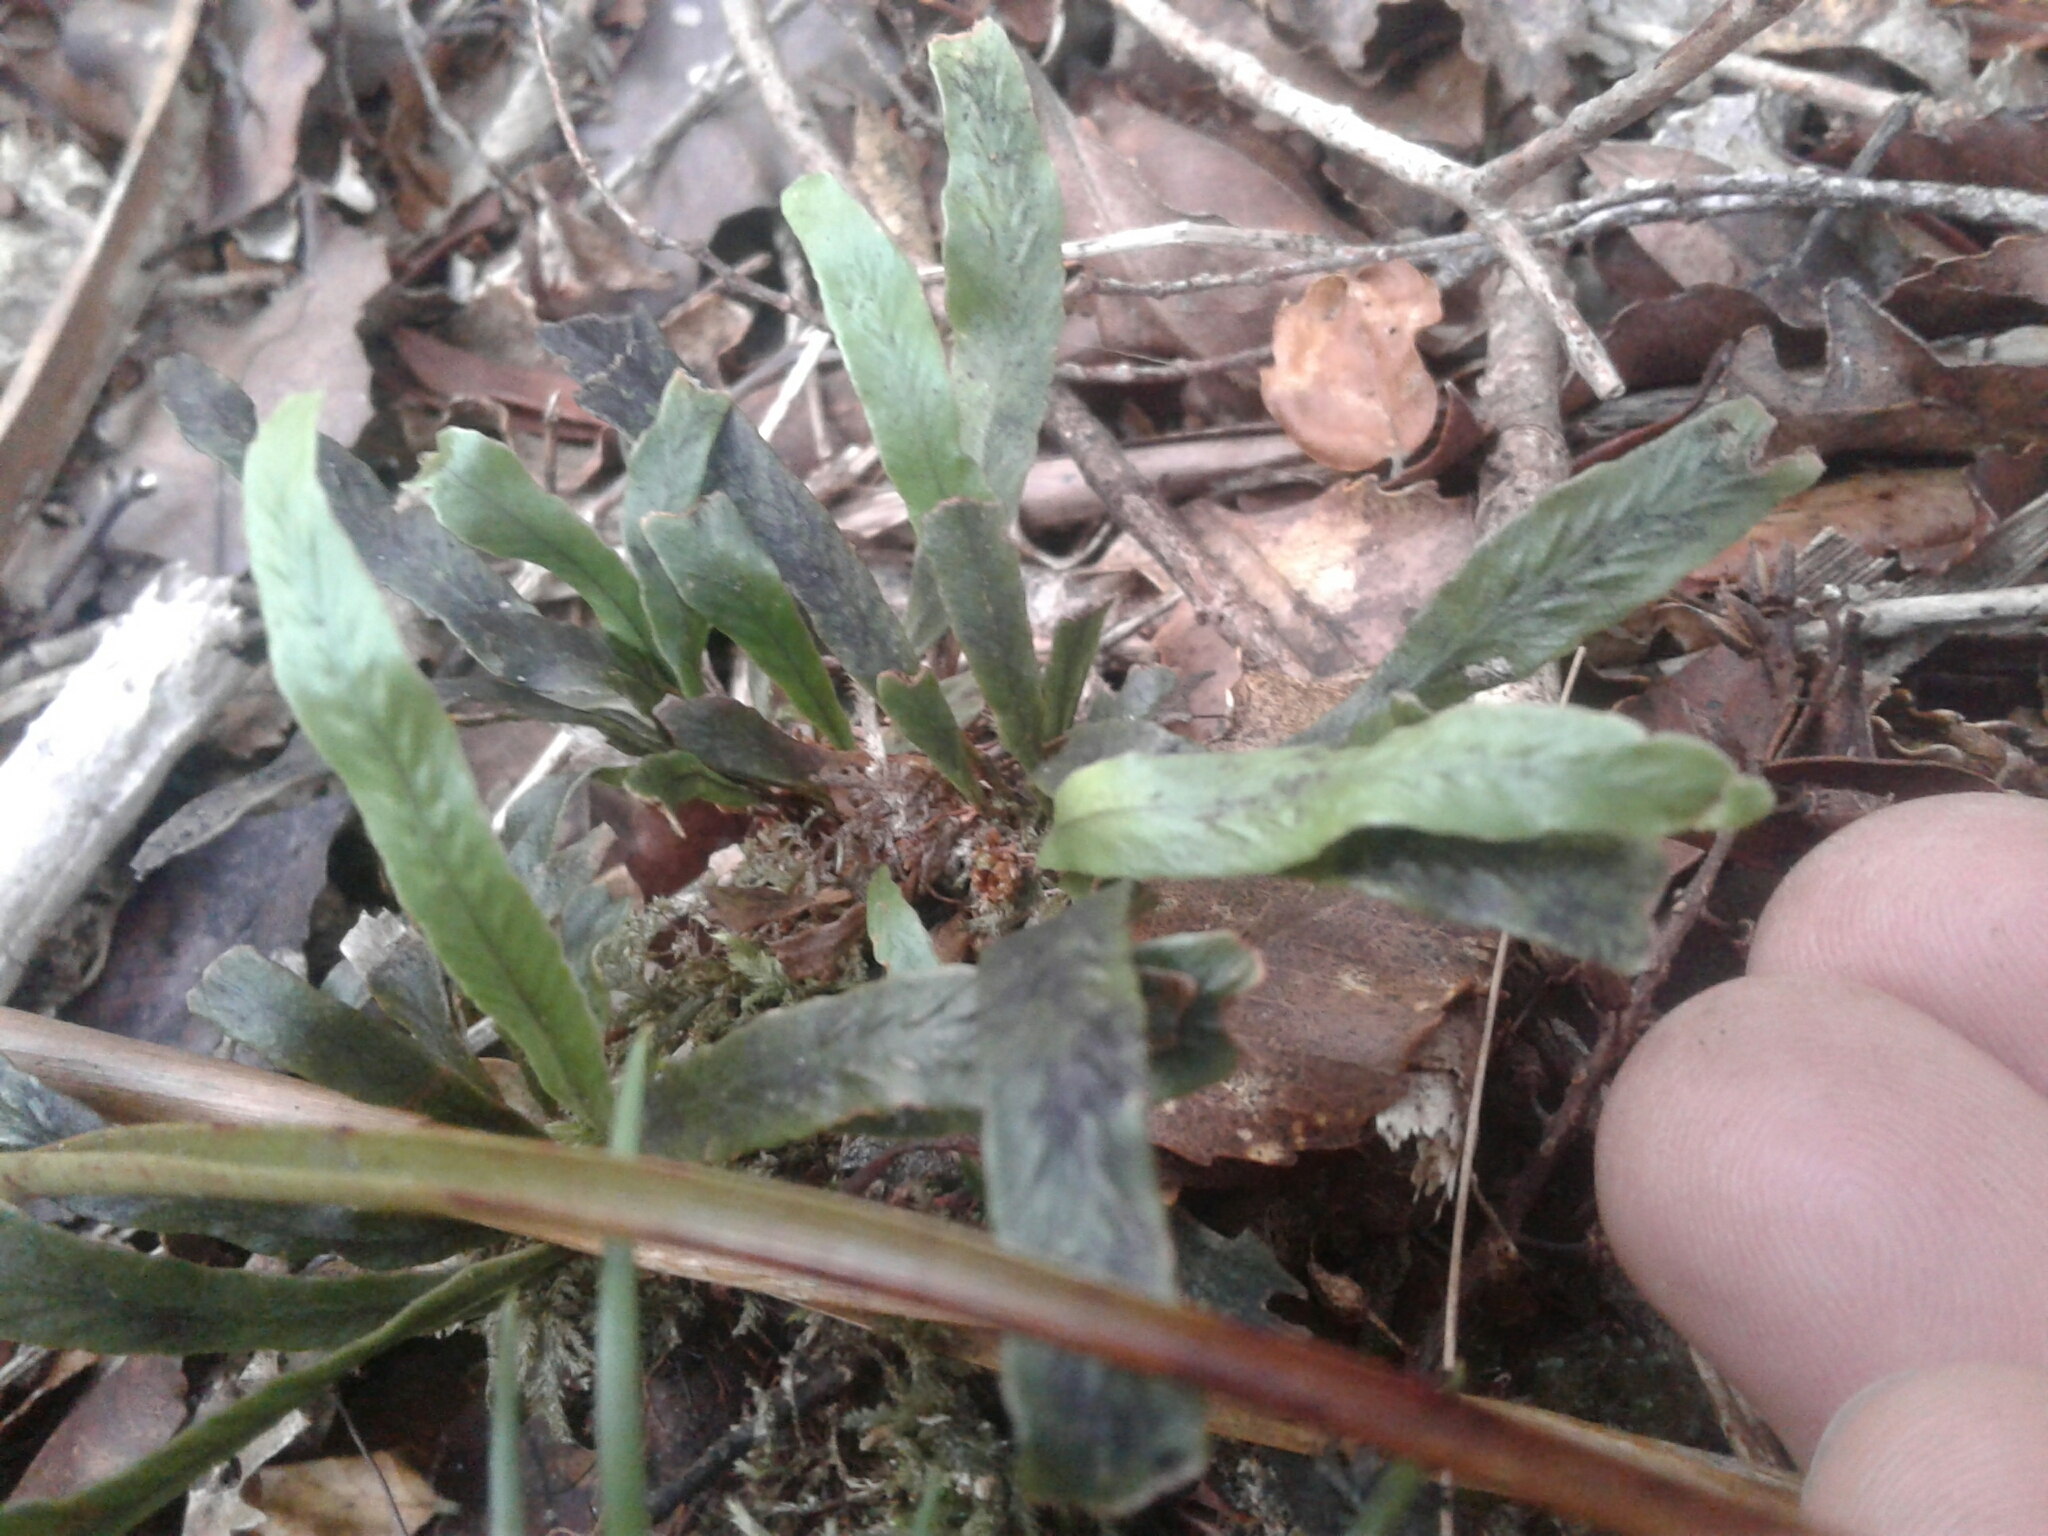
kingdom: Plantae
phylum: Tracheophyta
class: Polypodiopsida
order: Polypodiales
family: Polypodiaceae
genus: Notogrammitis
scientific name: Notogrammitis billardierei
